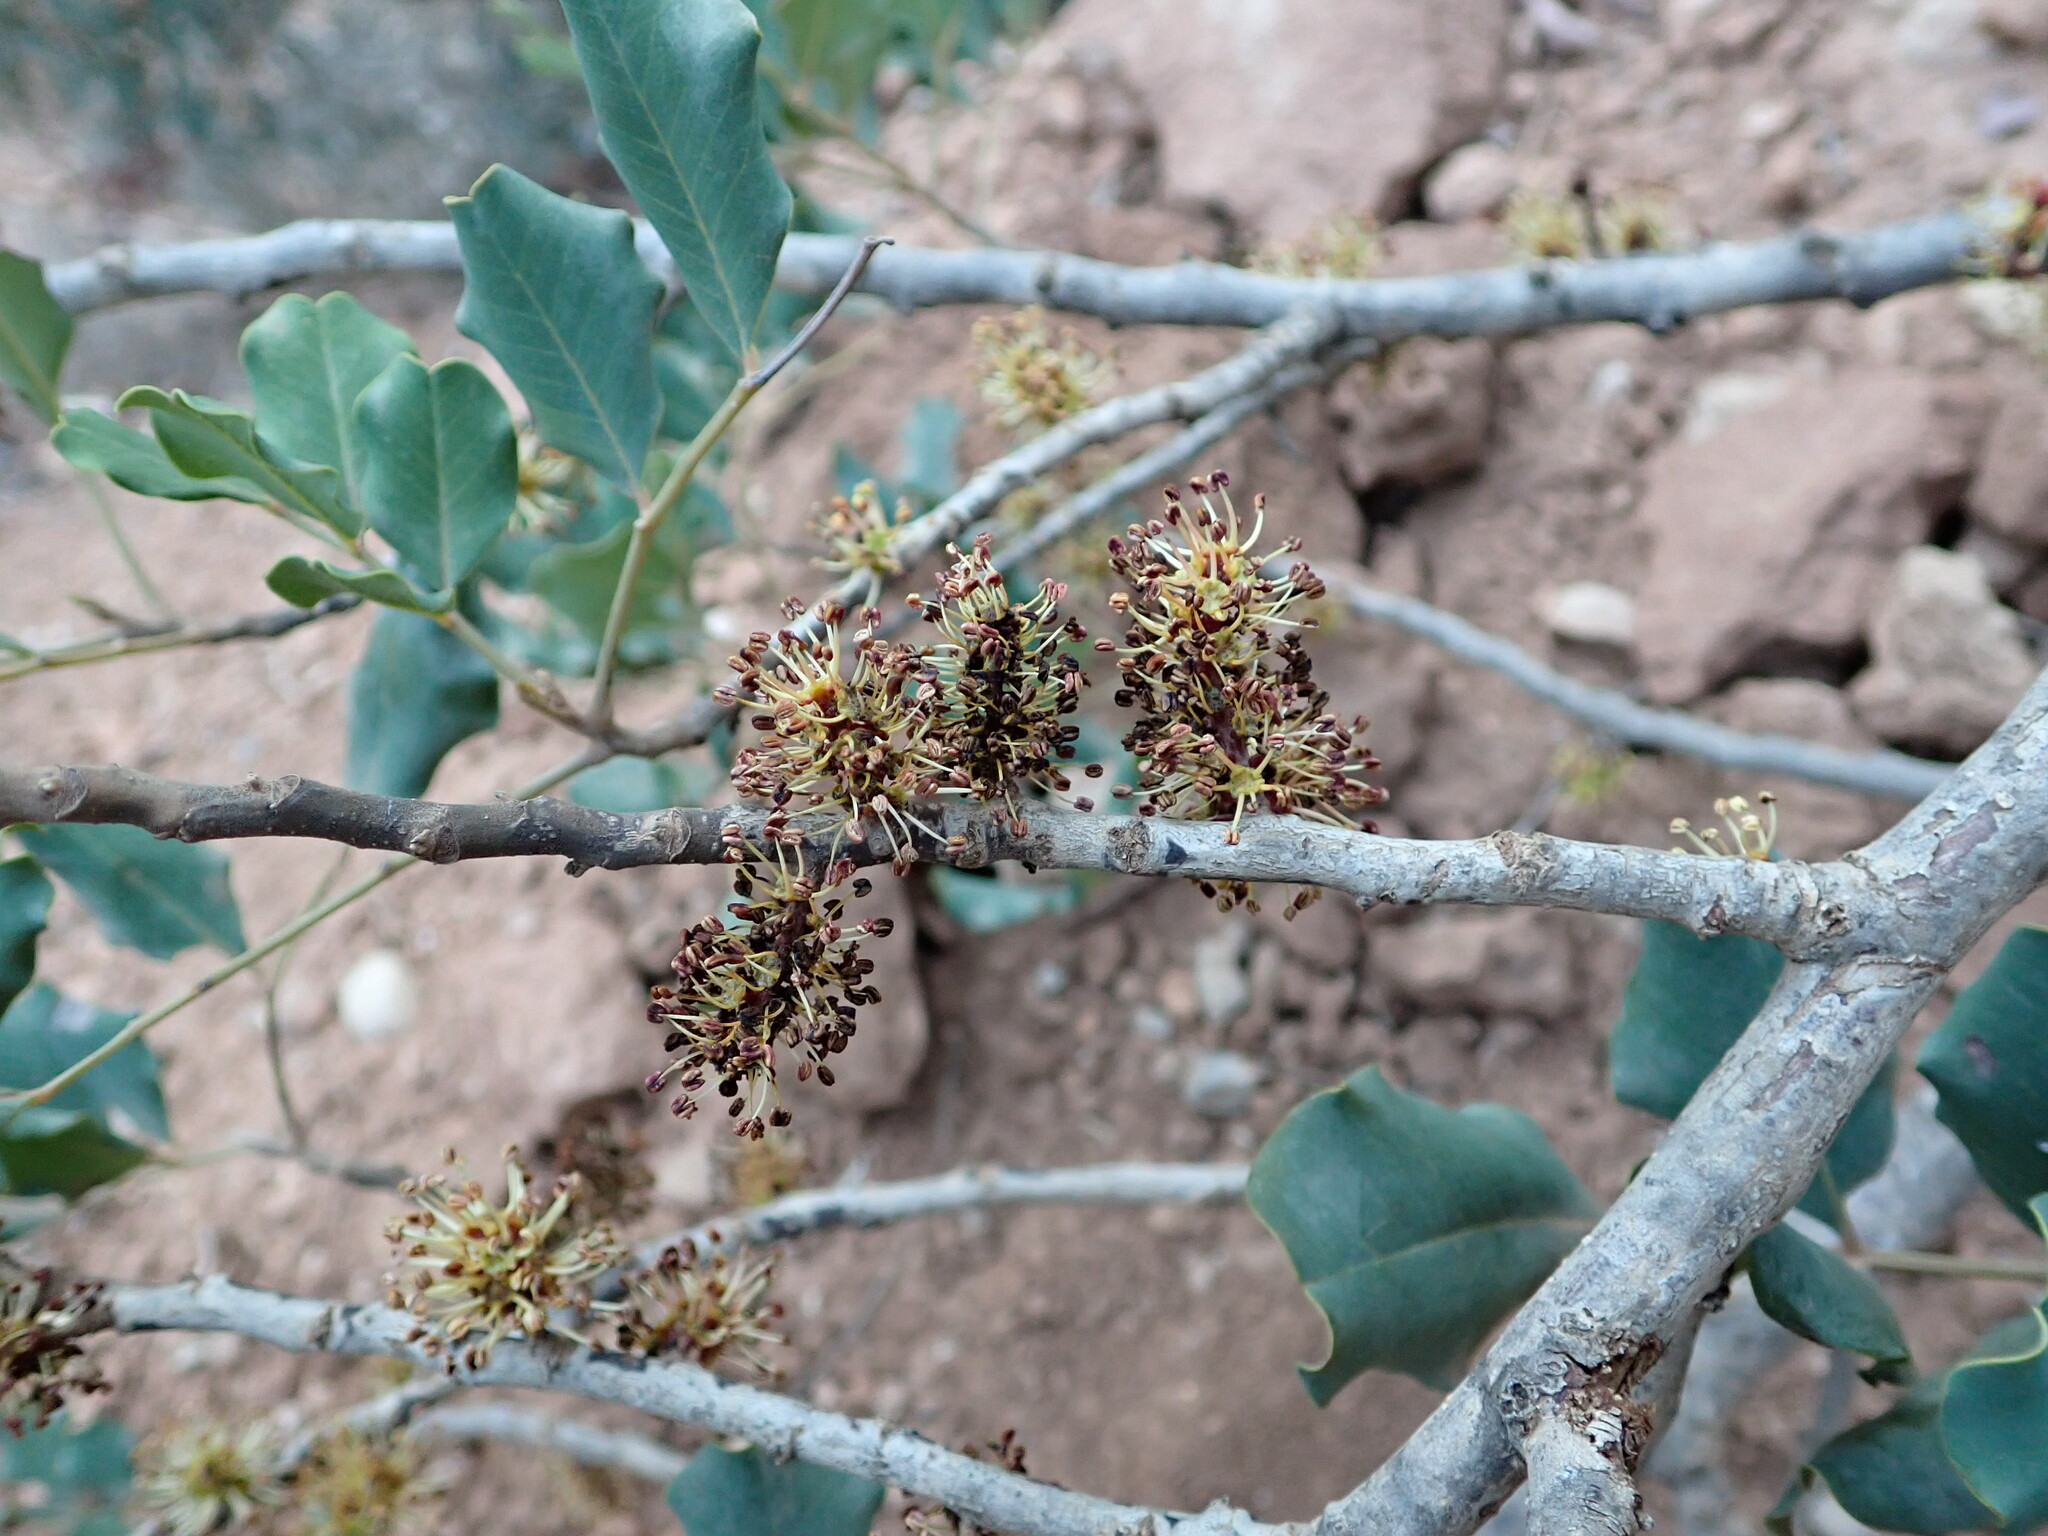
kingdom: Plantae
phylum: Tracheophyta
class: Magnoliopsida
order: Fabales
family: Fabaceae
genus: Ceratonia
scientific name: Ceratonia siliqua
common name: Carob
